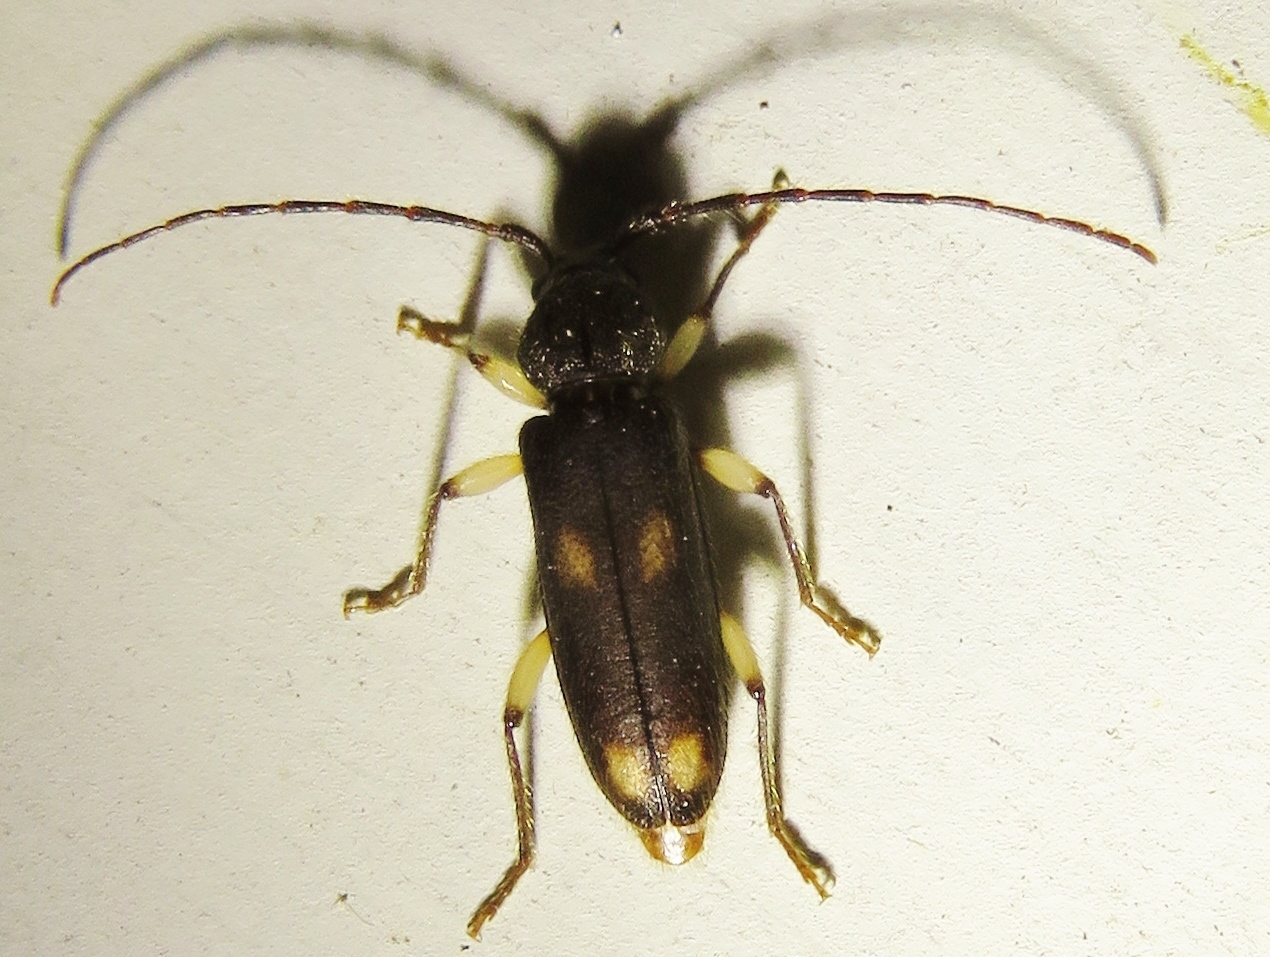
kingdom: Animalia
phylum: Arthropoda
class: Insecta
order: Coleoptera
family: Cerambycidae
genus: Tylonotus
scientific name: Tylonotus bimaculatus
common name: Ash and privet borer
